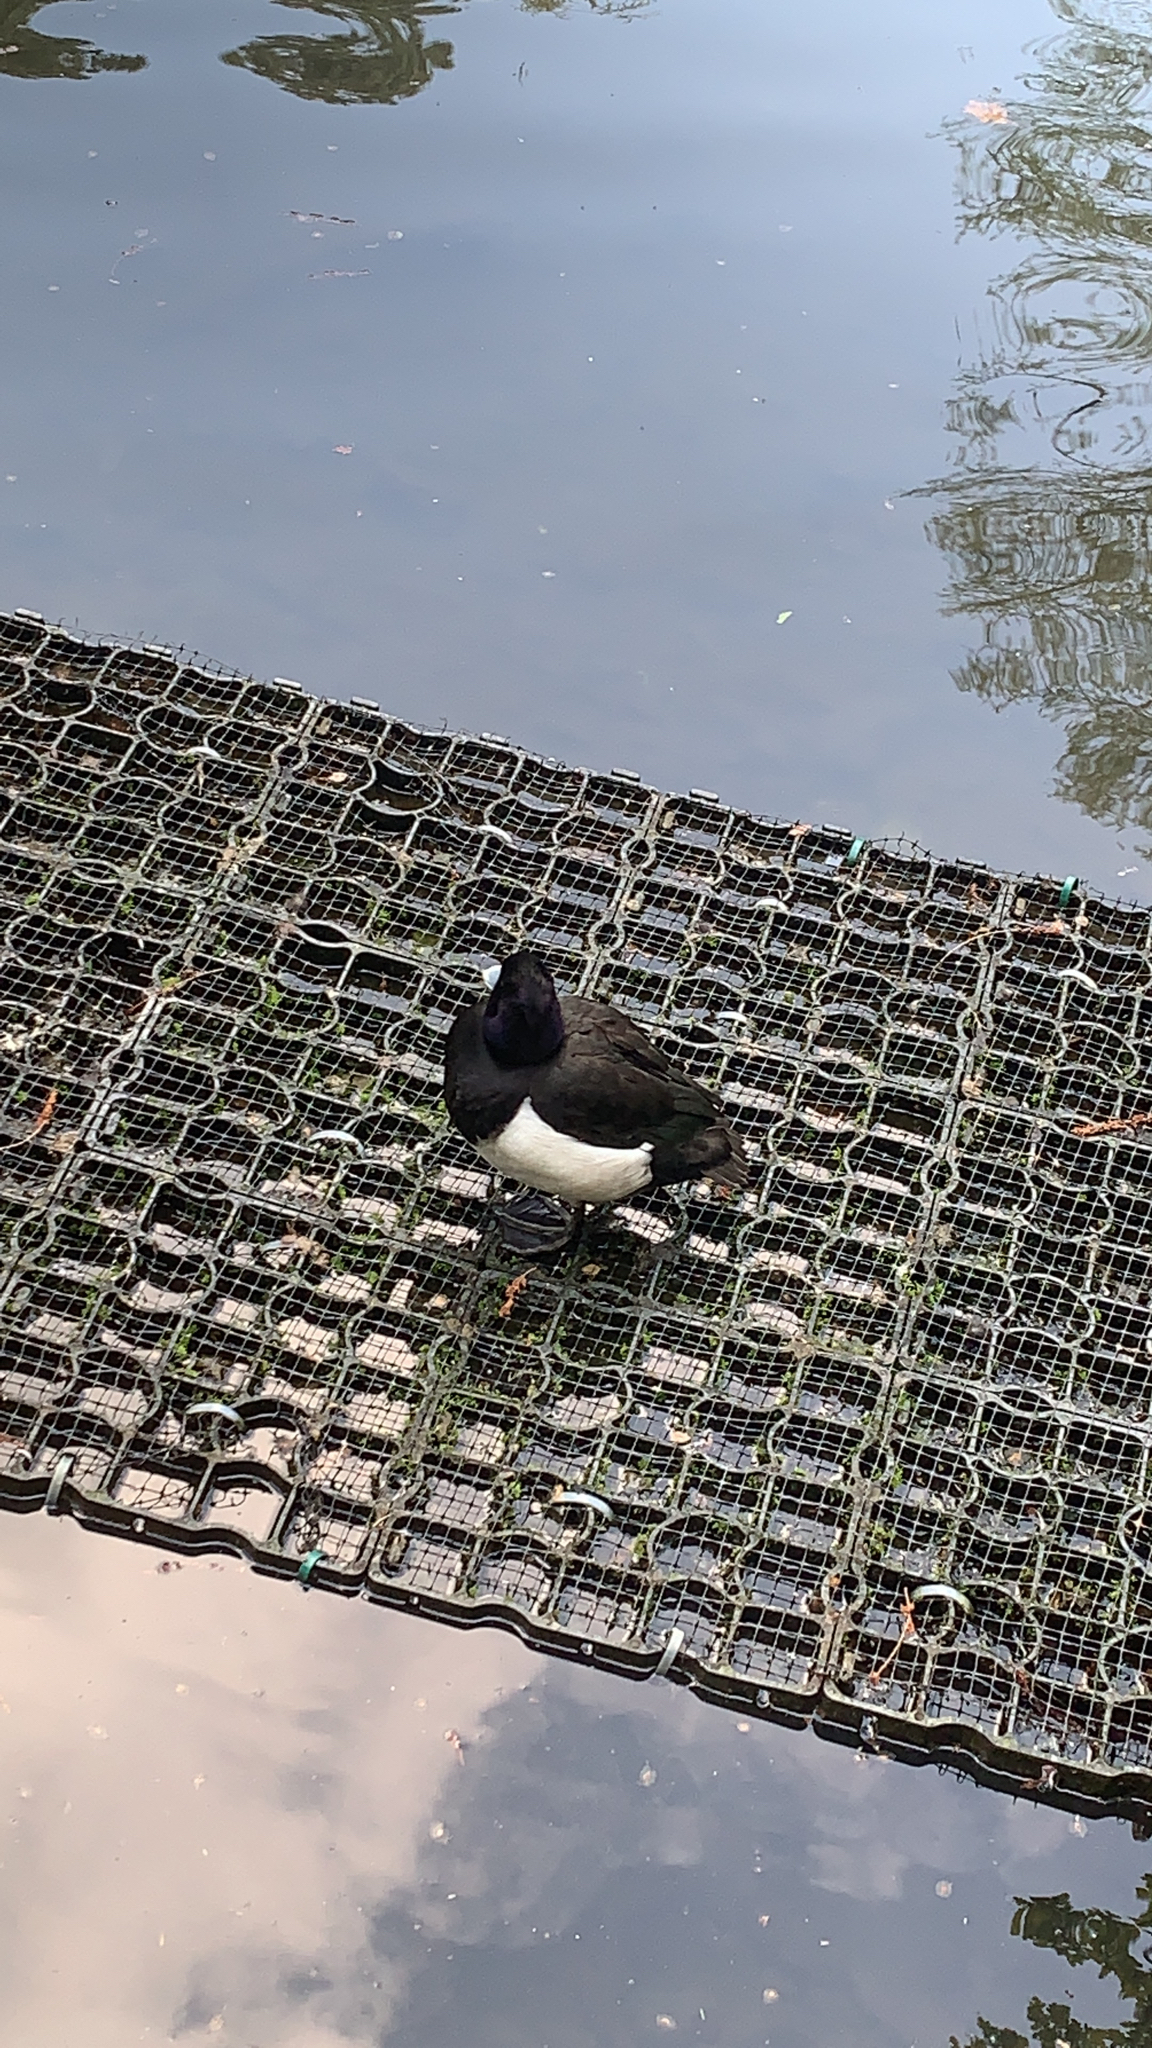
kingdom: Animalia
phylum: Chordata
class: Aves
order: Anseriformes
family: Anatidae
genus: Aythya
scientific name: Aythya fuligula
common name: Tufted duck
